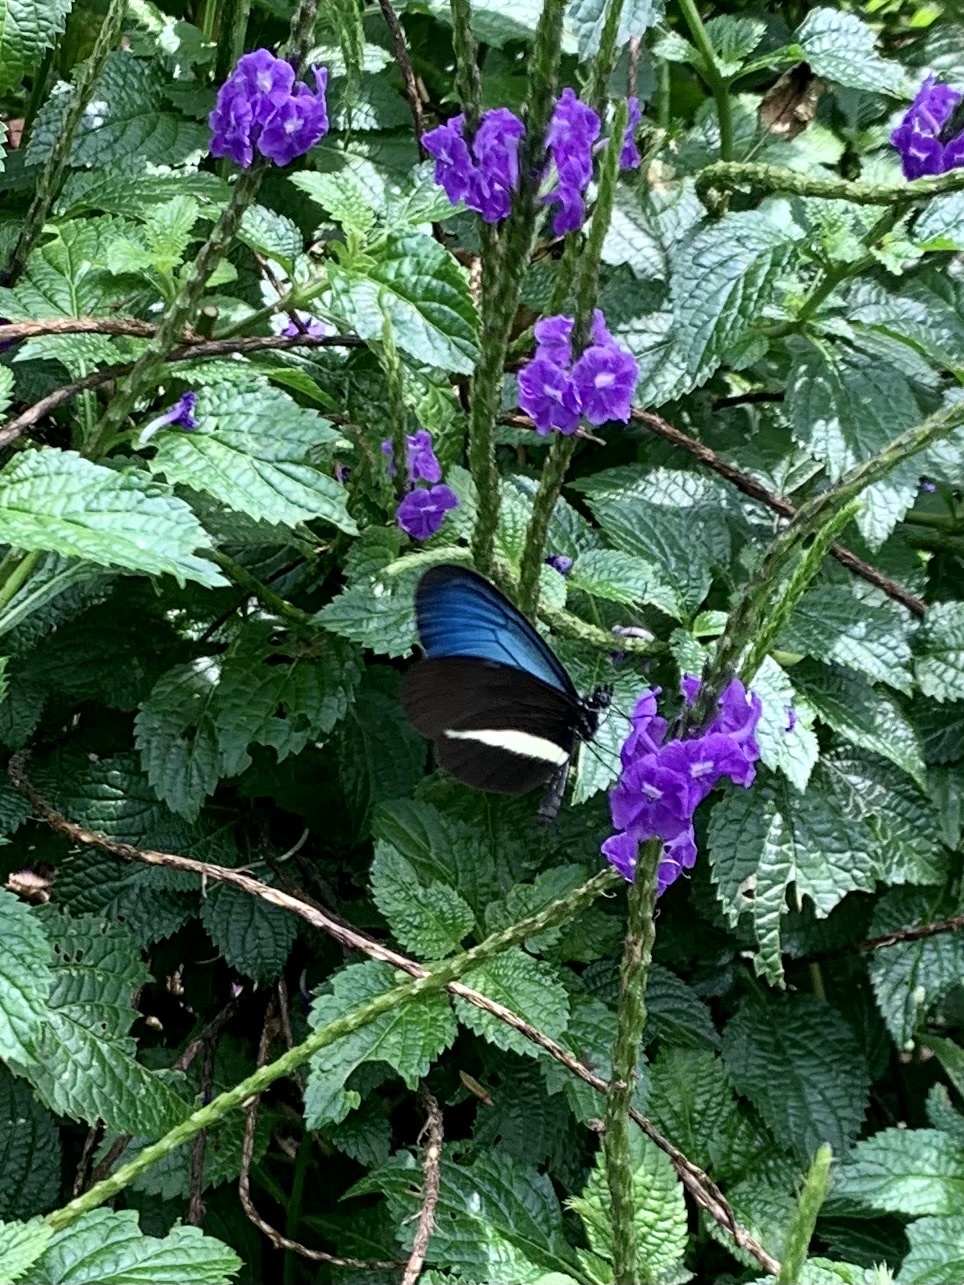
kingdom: Animalia
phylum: Arthropoda
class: Insecta
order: Lepidoptera
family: Nymphalidae
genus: Heliconius
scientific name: Heliconius erato
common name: Common patch longwing
